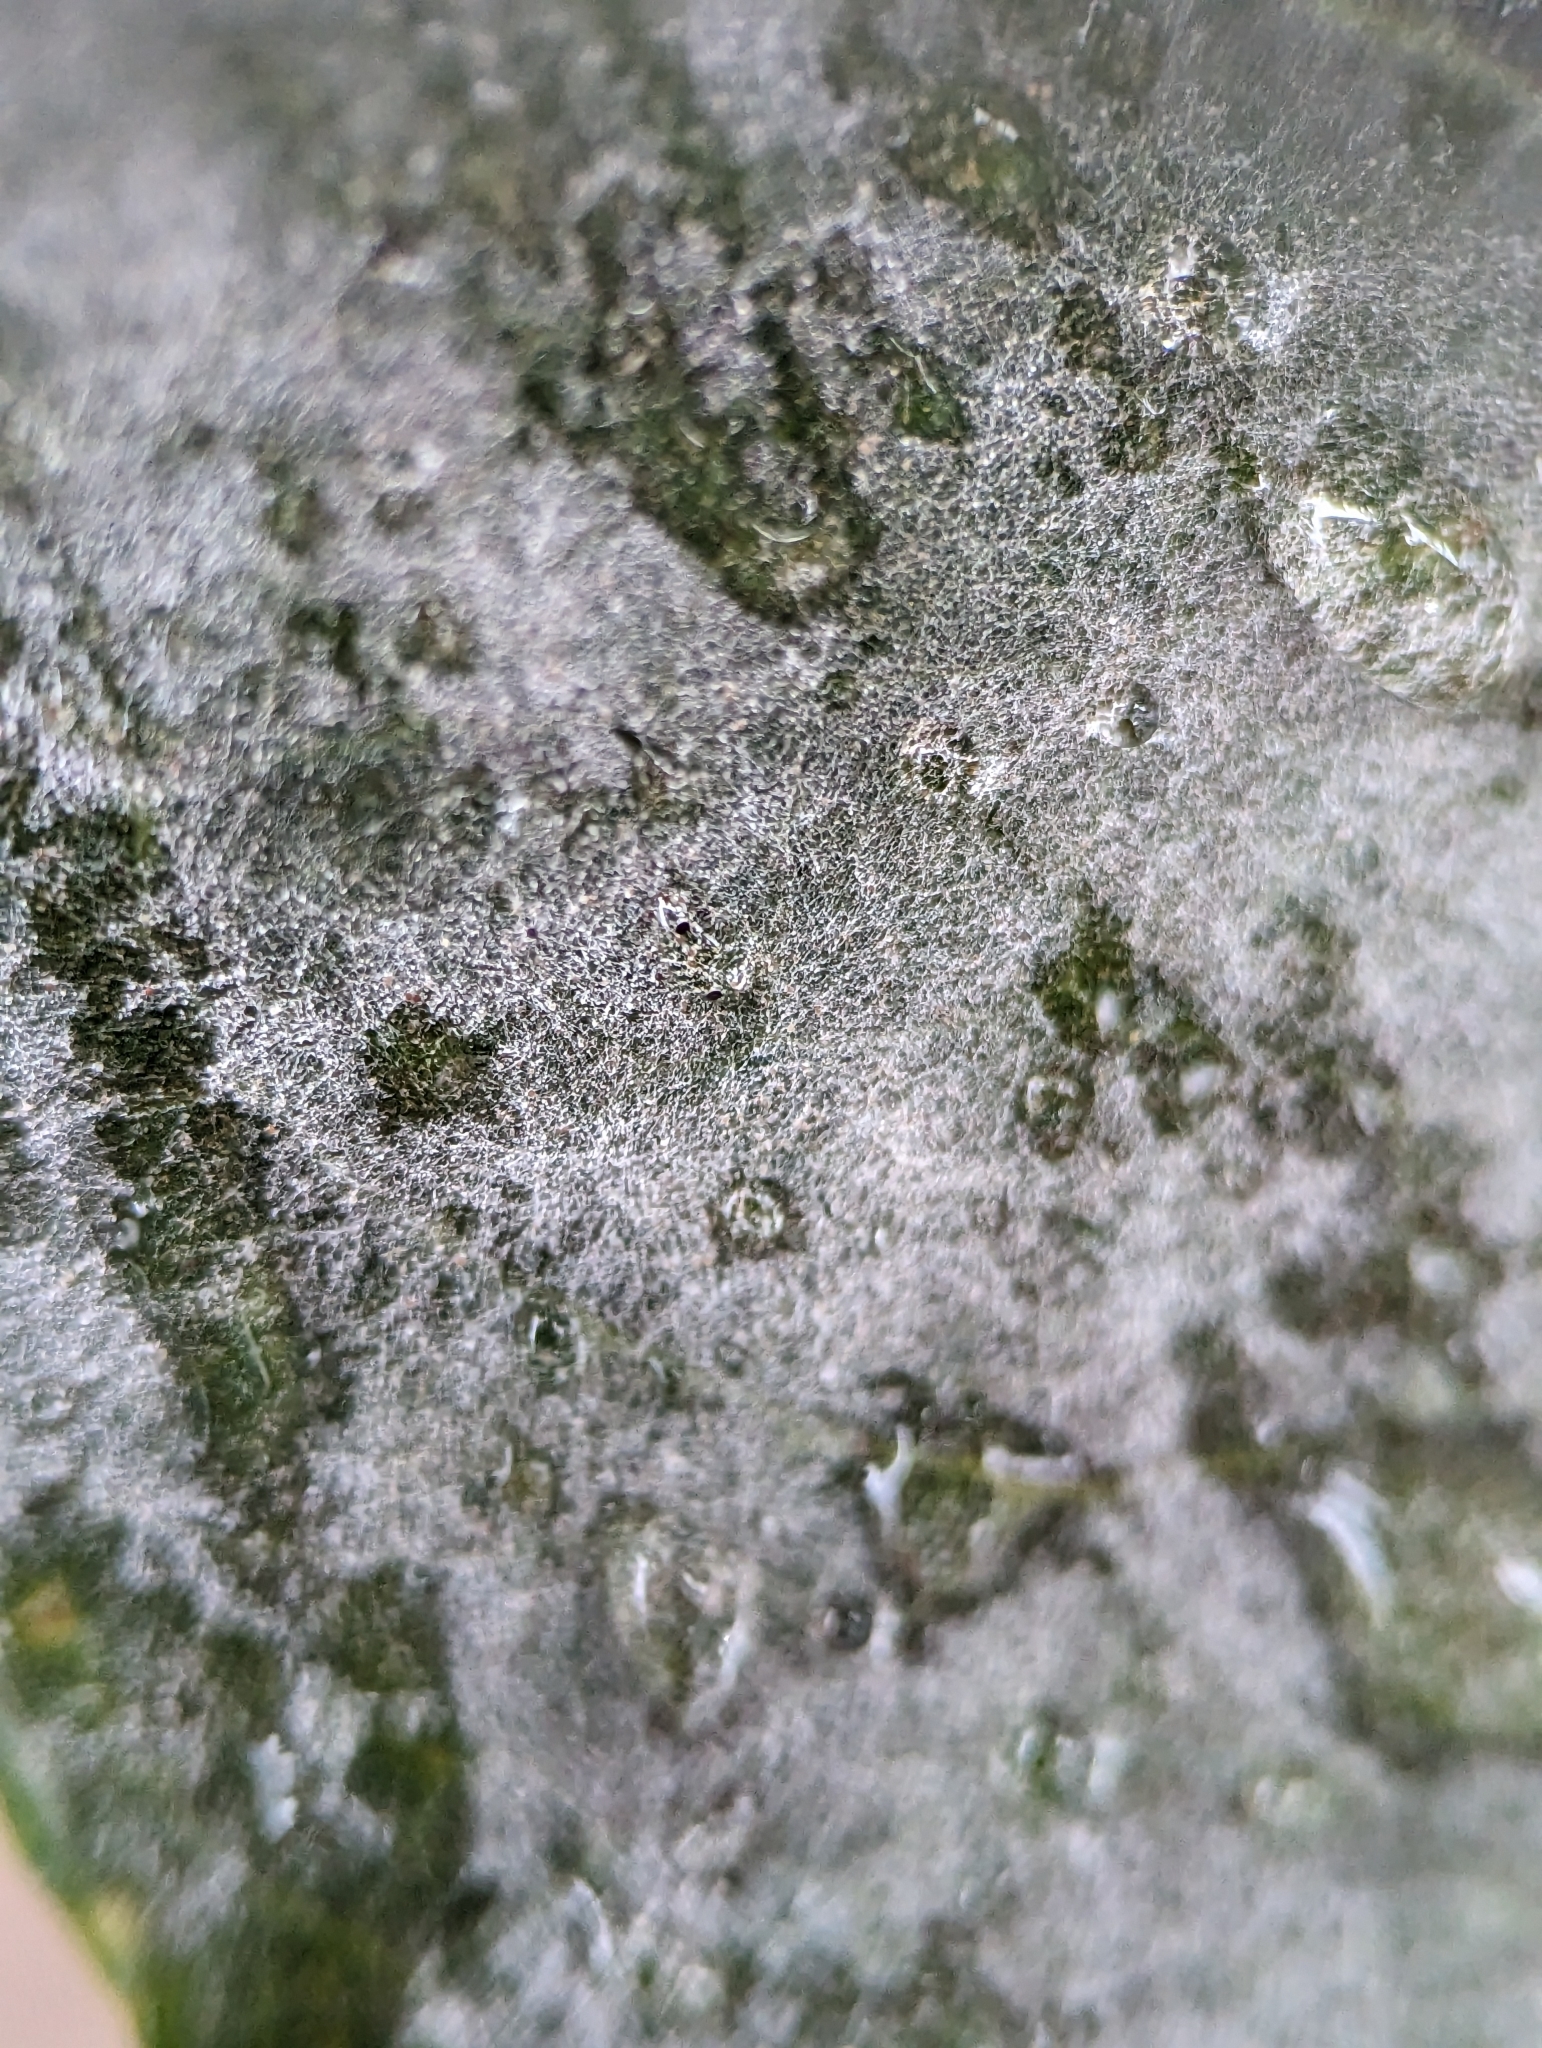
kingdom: Fungi
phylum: Ascomycota
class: Leotiomycetes
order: Helotiales
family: Erysiphaceae
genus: Erysiphe
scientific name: Erysiphe syringae
